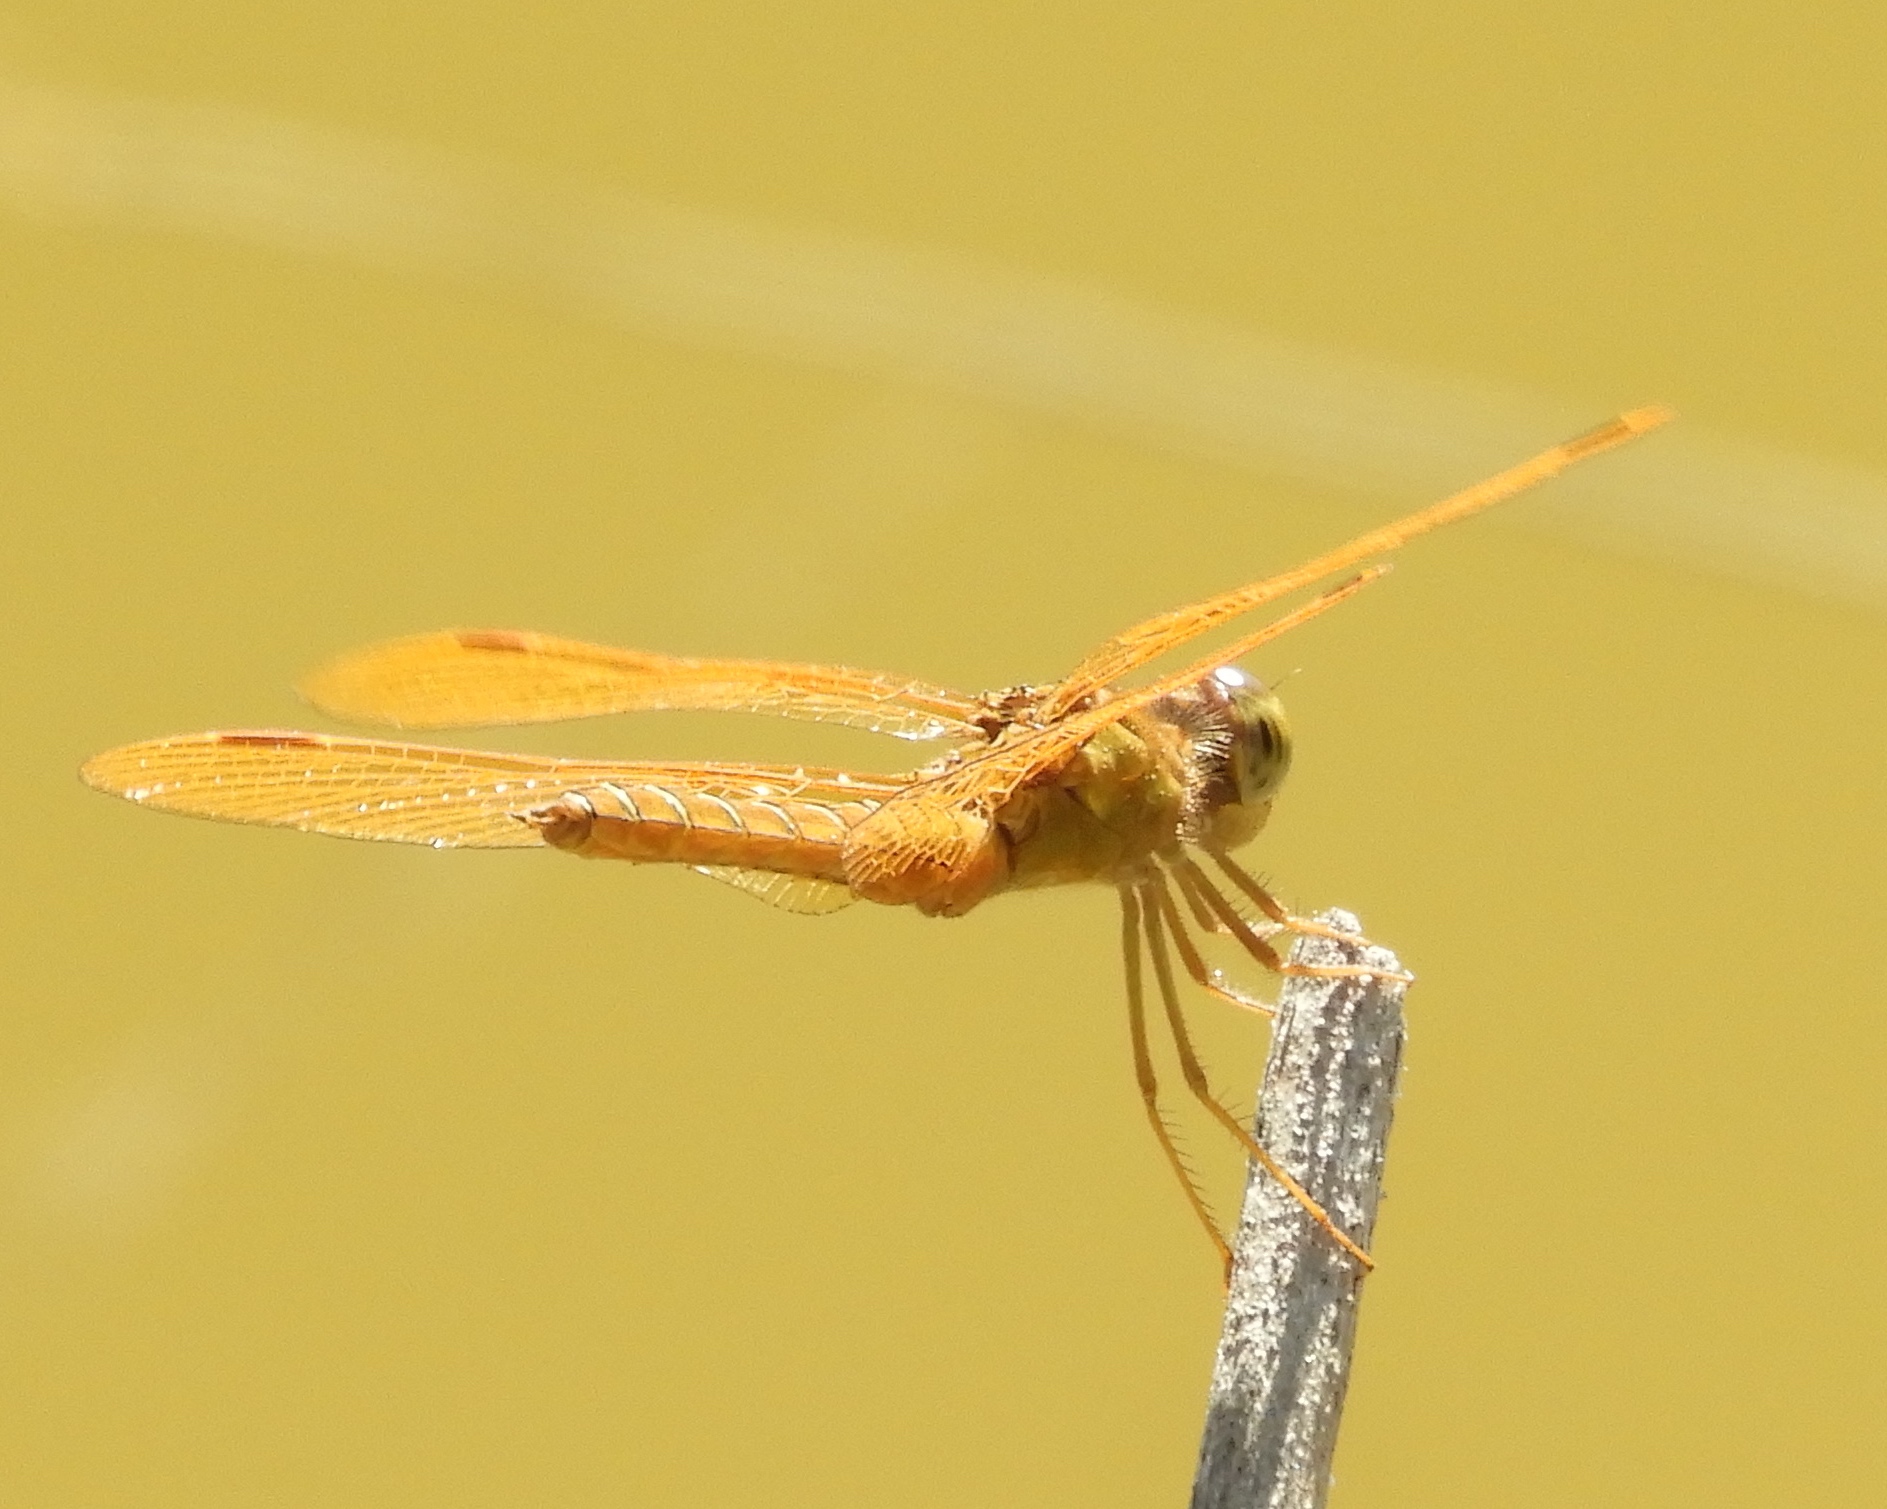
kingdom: Animalia
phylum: Arthropoda
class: Insecta
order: Odonata
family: Libellulidae
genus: Perithemis
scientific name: Perithemis intensa
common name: Mexican amberwing
